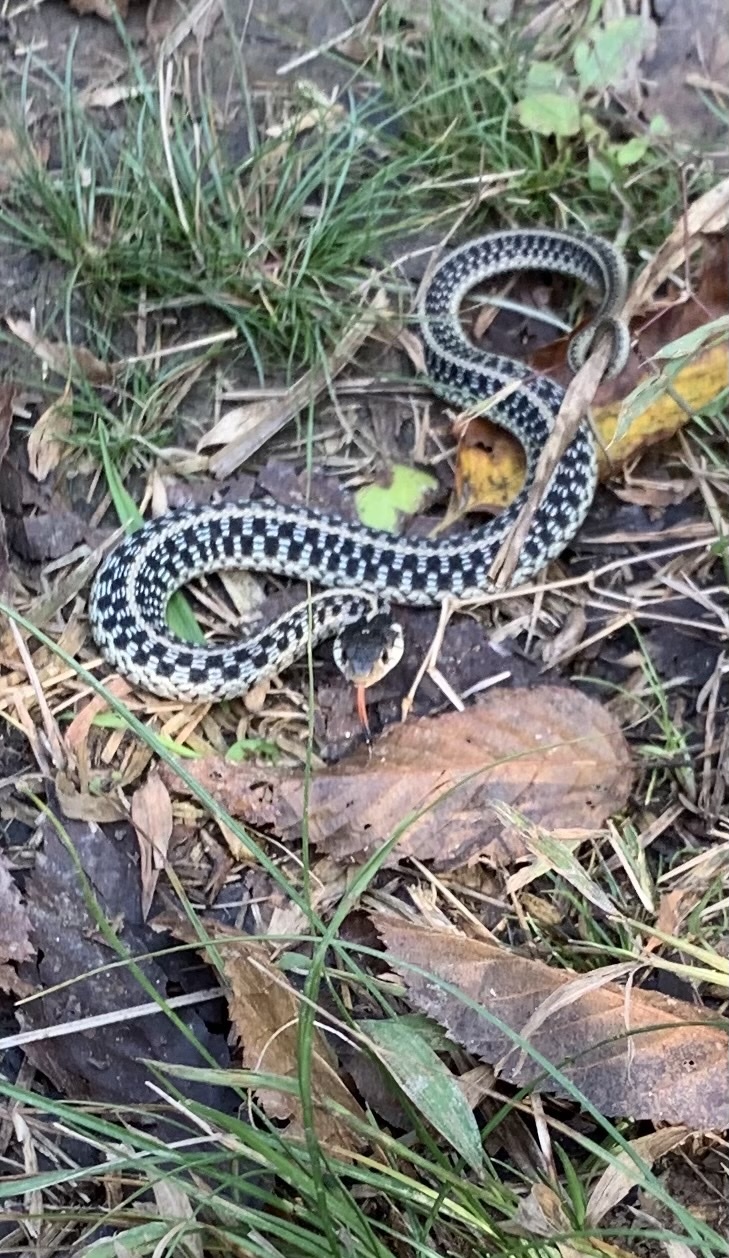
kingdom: Animalia
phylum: Chordata
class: Squamata
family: Colubridae
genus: Thamnophis
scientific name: Thamnophis sirtalis
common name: Common garter snake
